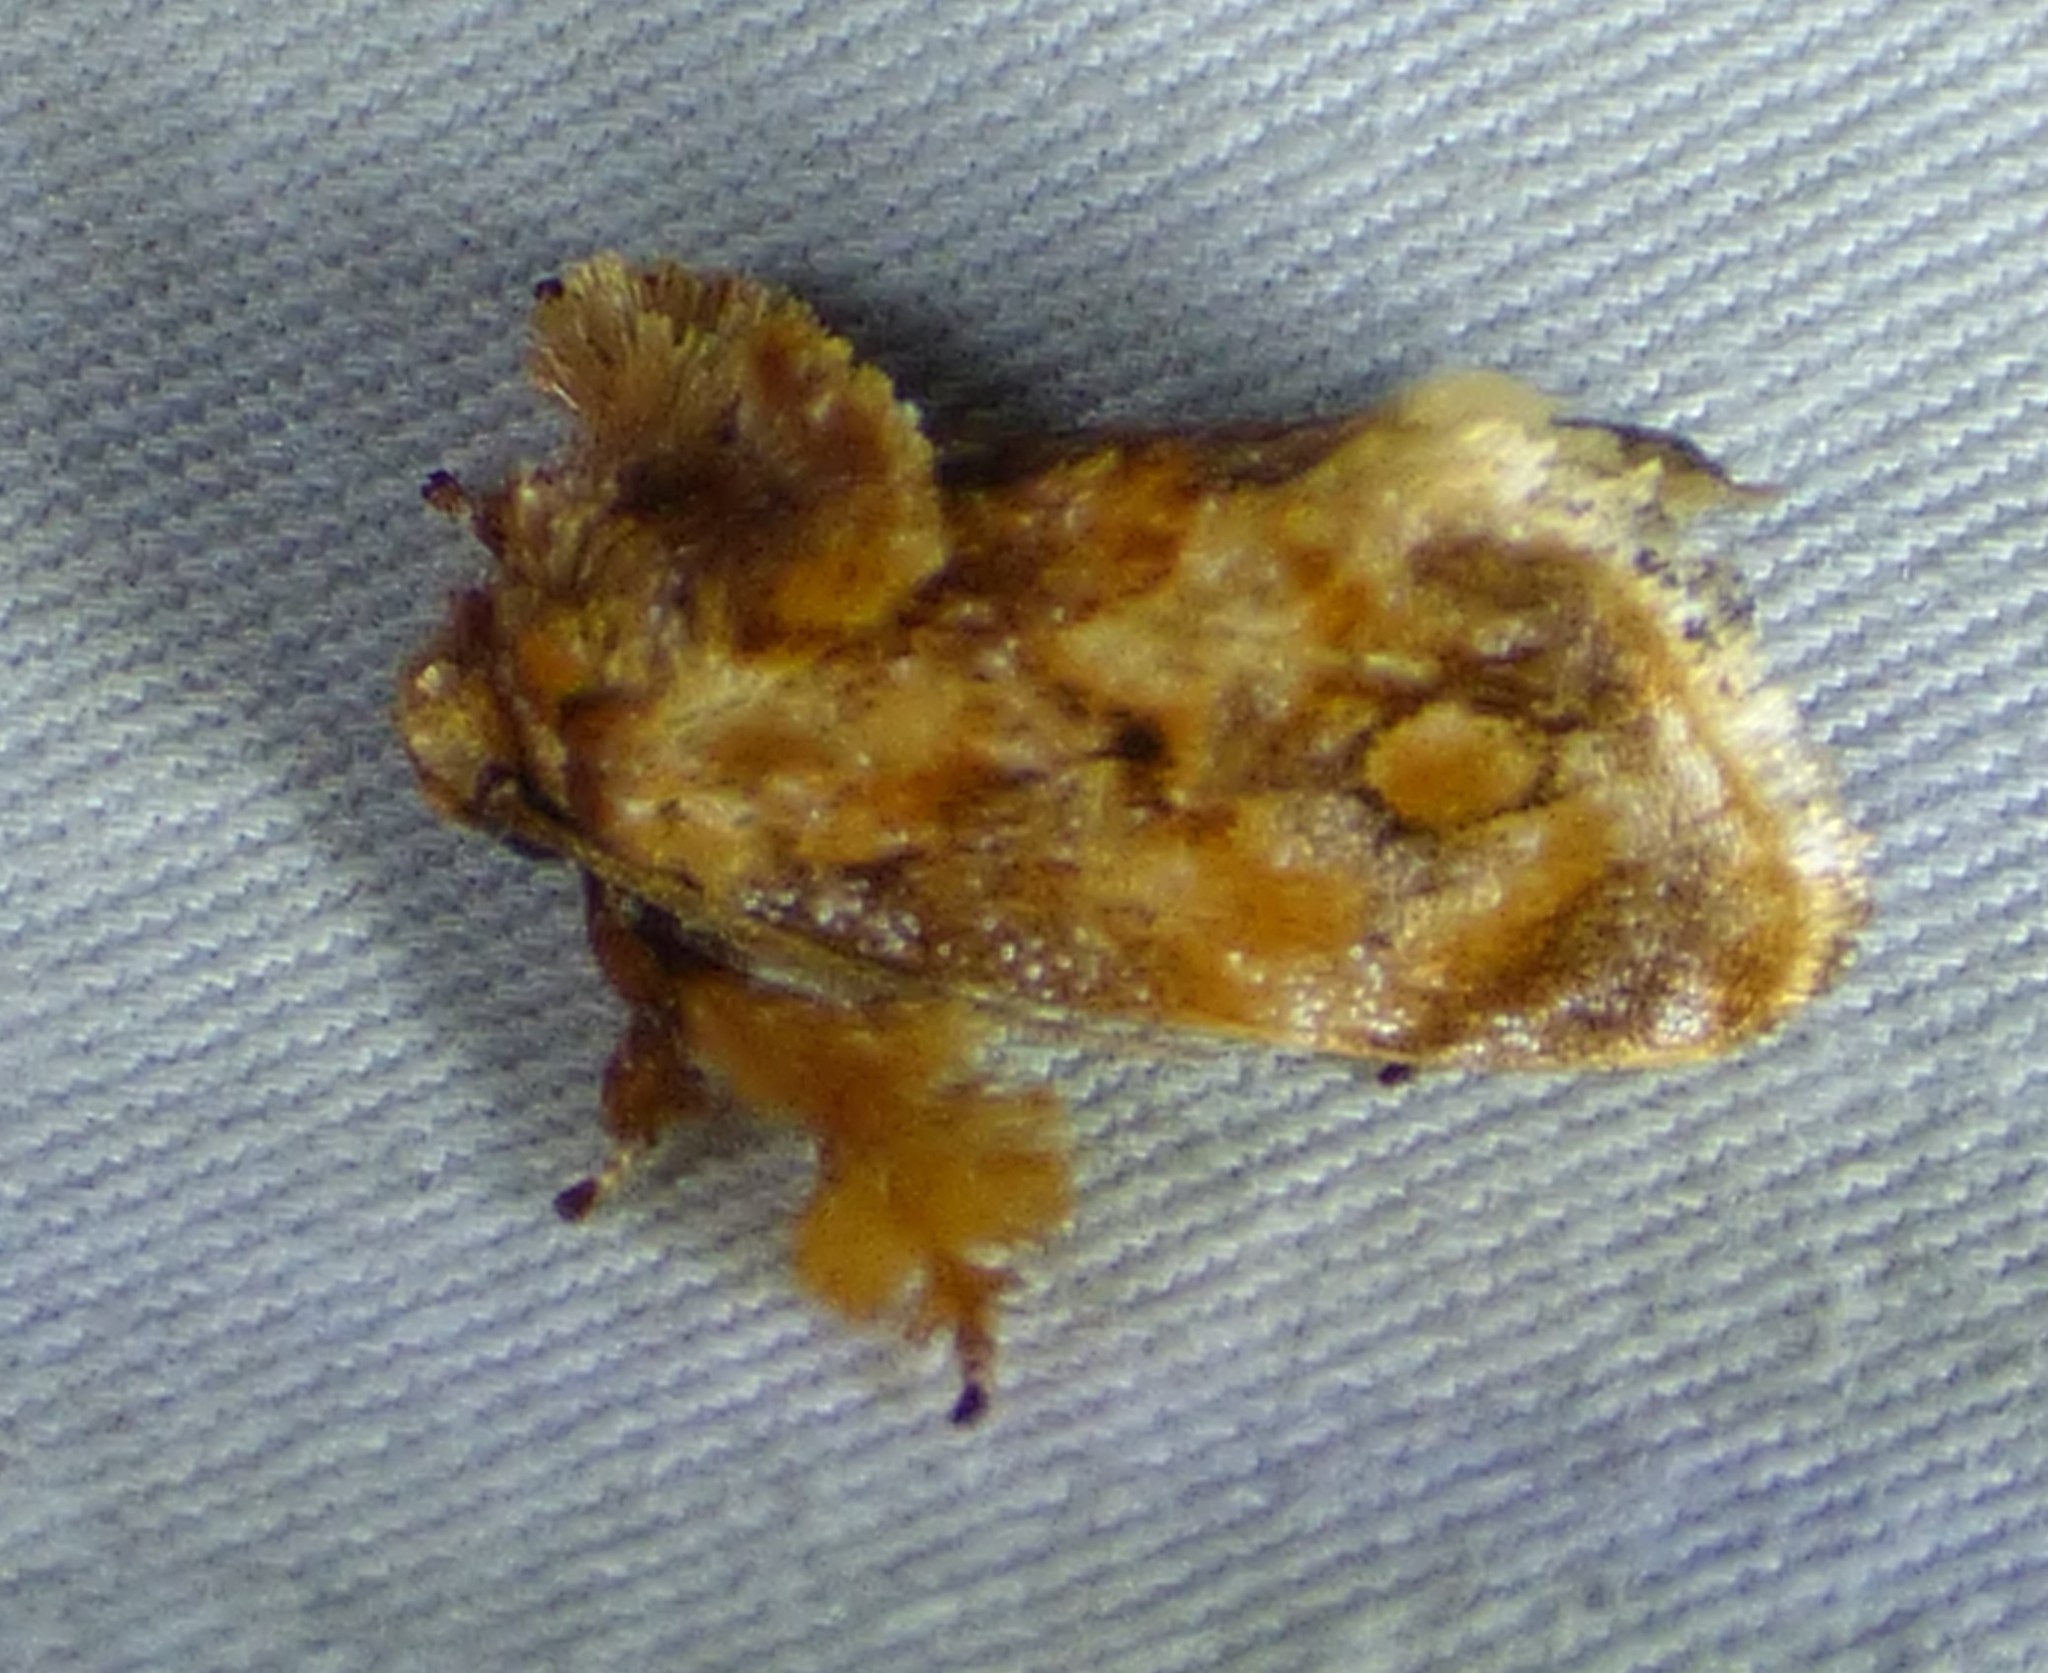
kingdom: Animalia
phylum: Arthropoda
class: Insecta
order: Lepidoptera
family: Limacodidae
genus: Isochaetes
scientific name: Isochaetes beutenmuelleri
